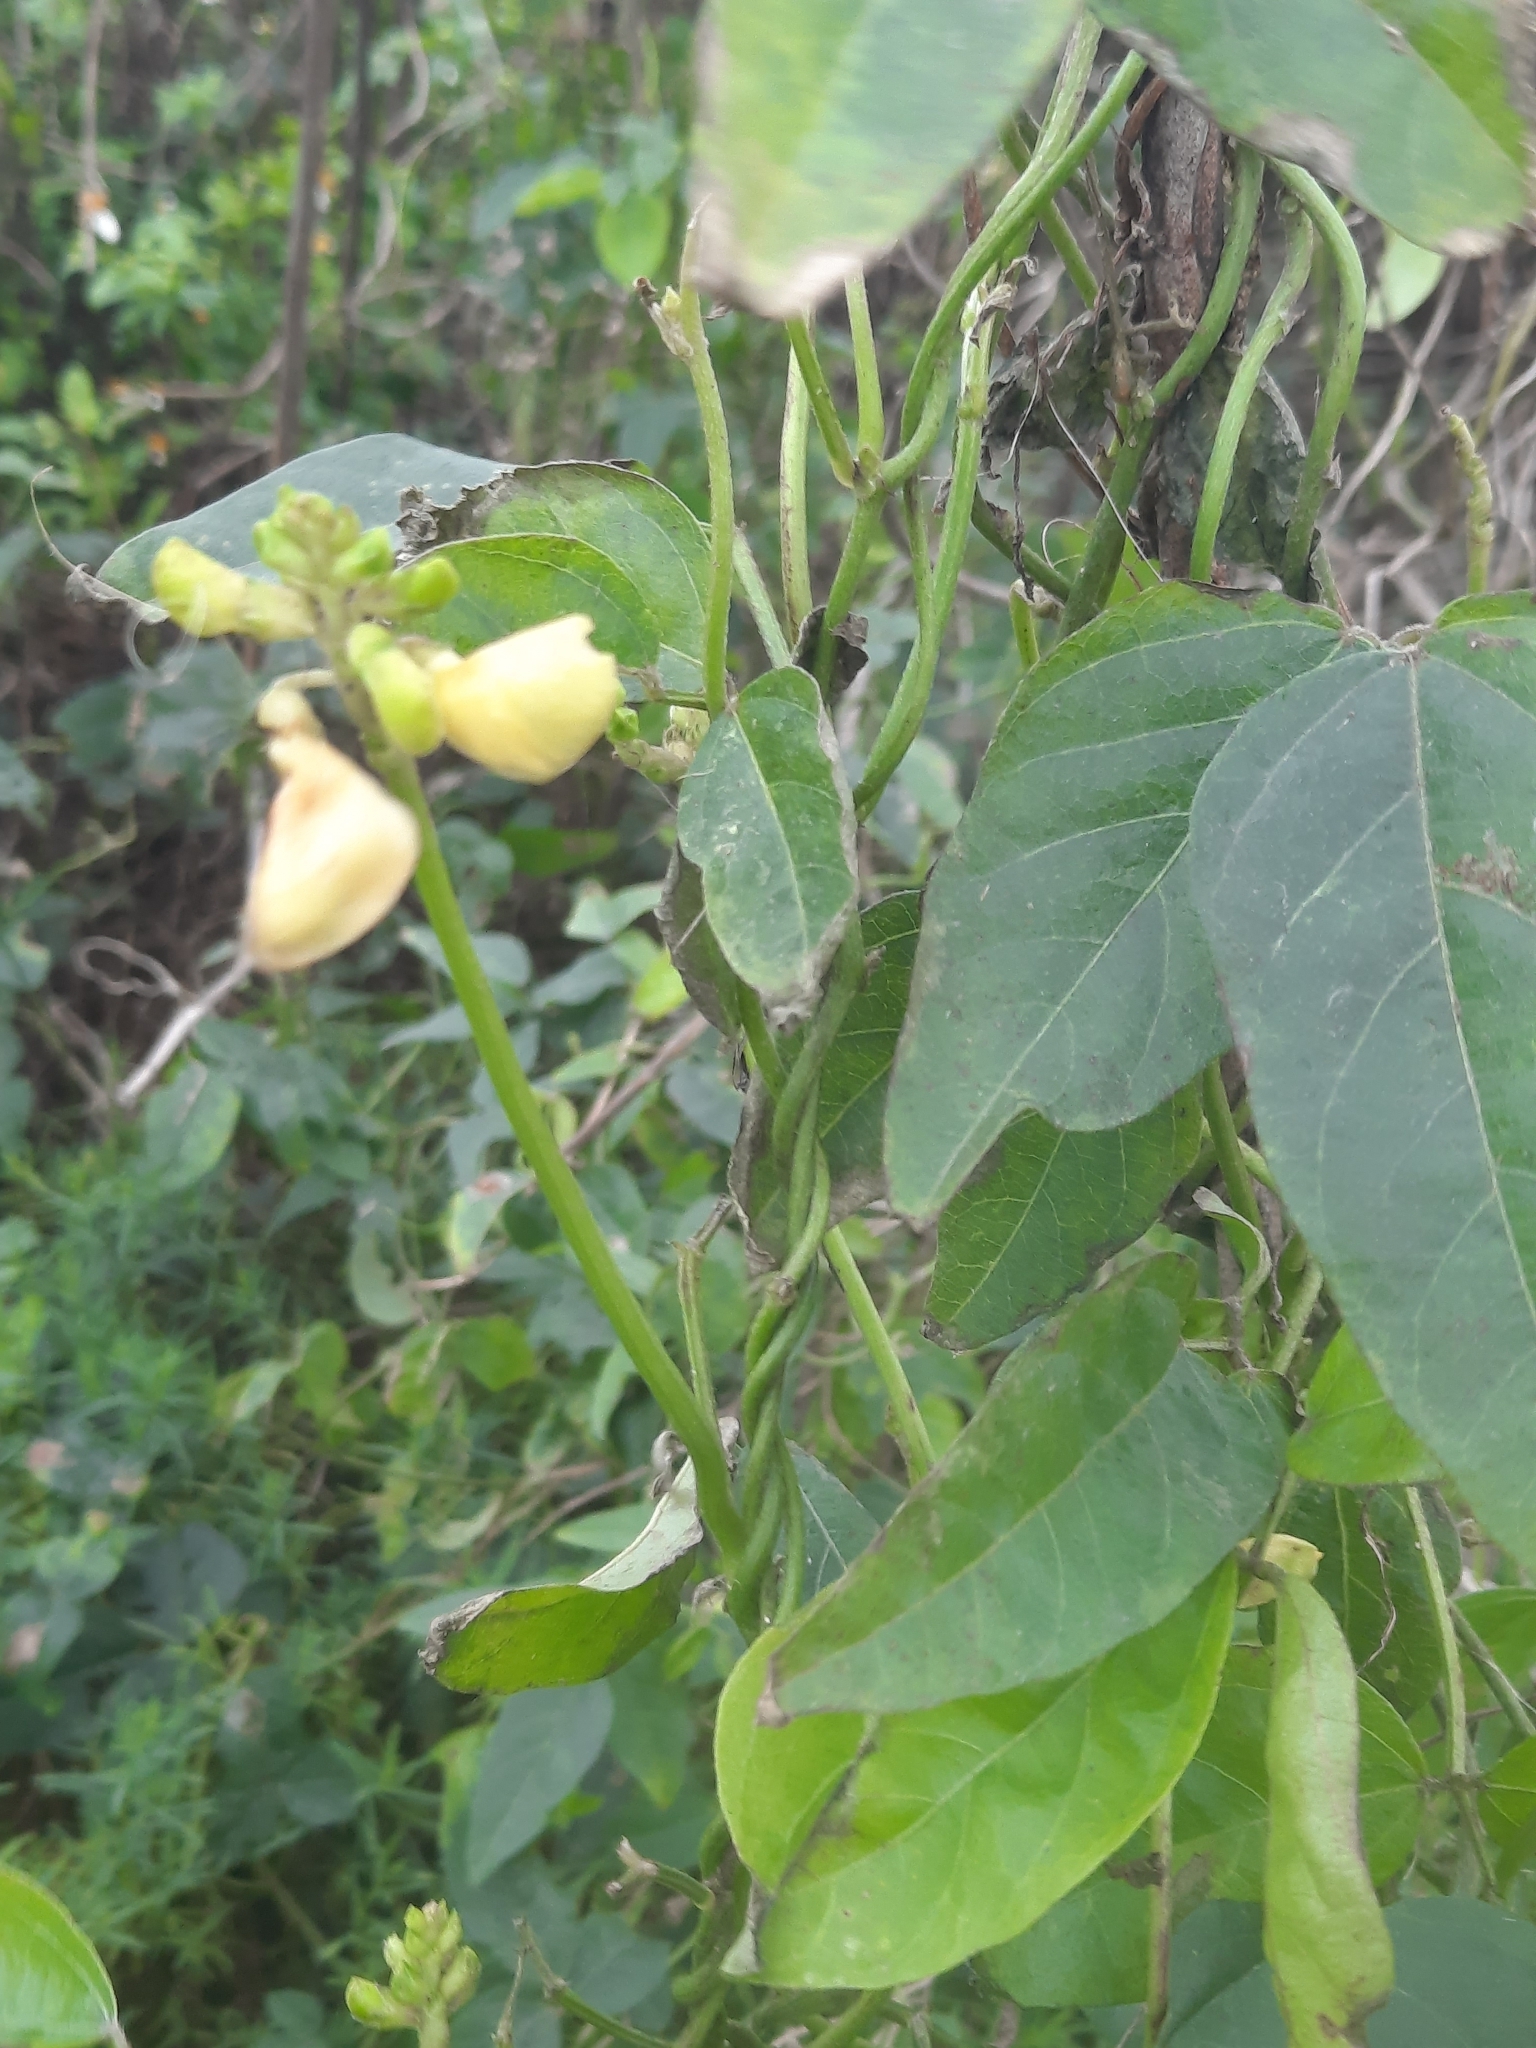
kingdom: Plantae
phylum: Tracheophyta
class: Magnoliopsida
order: Fabales
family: Fabaceae
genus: Vigna
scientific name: Vigna luteola
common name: Hairypod cowpea
